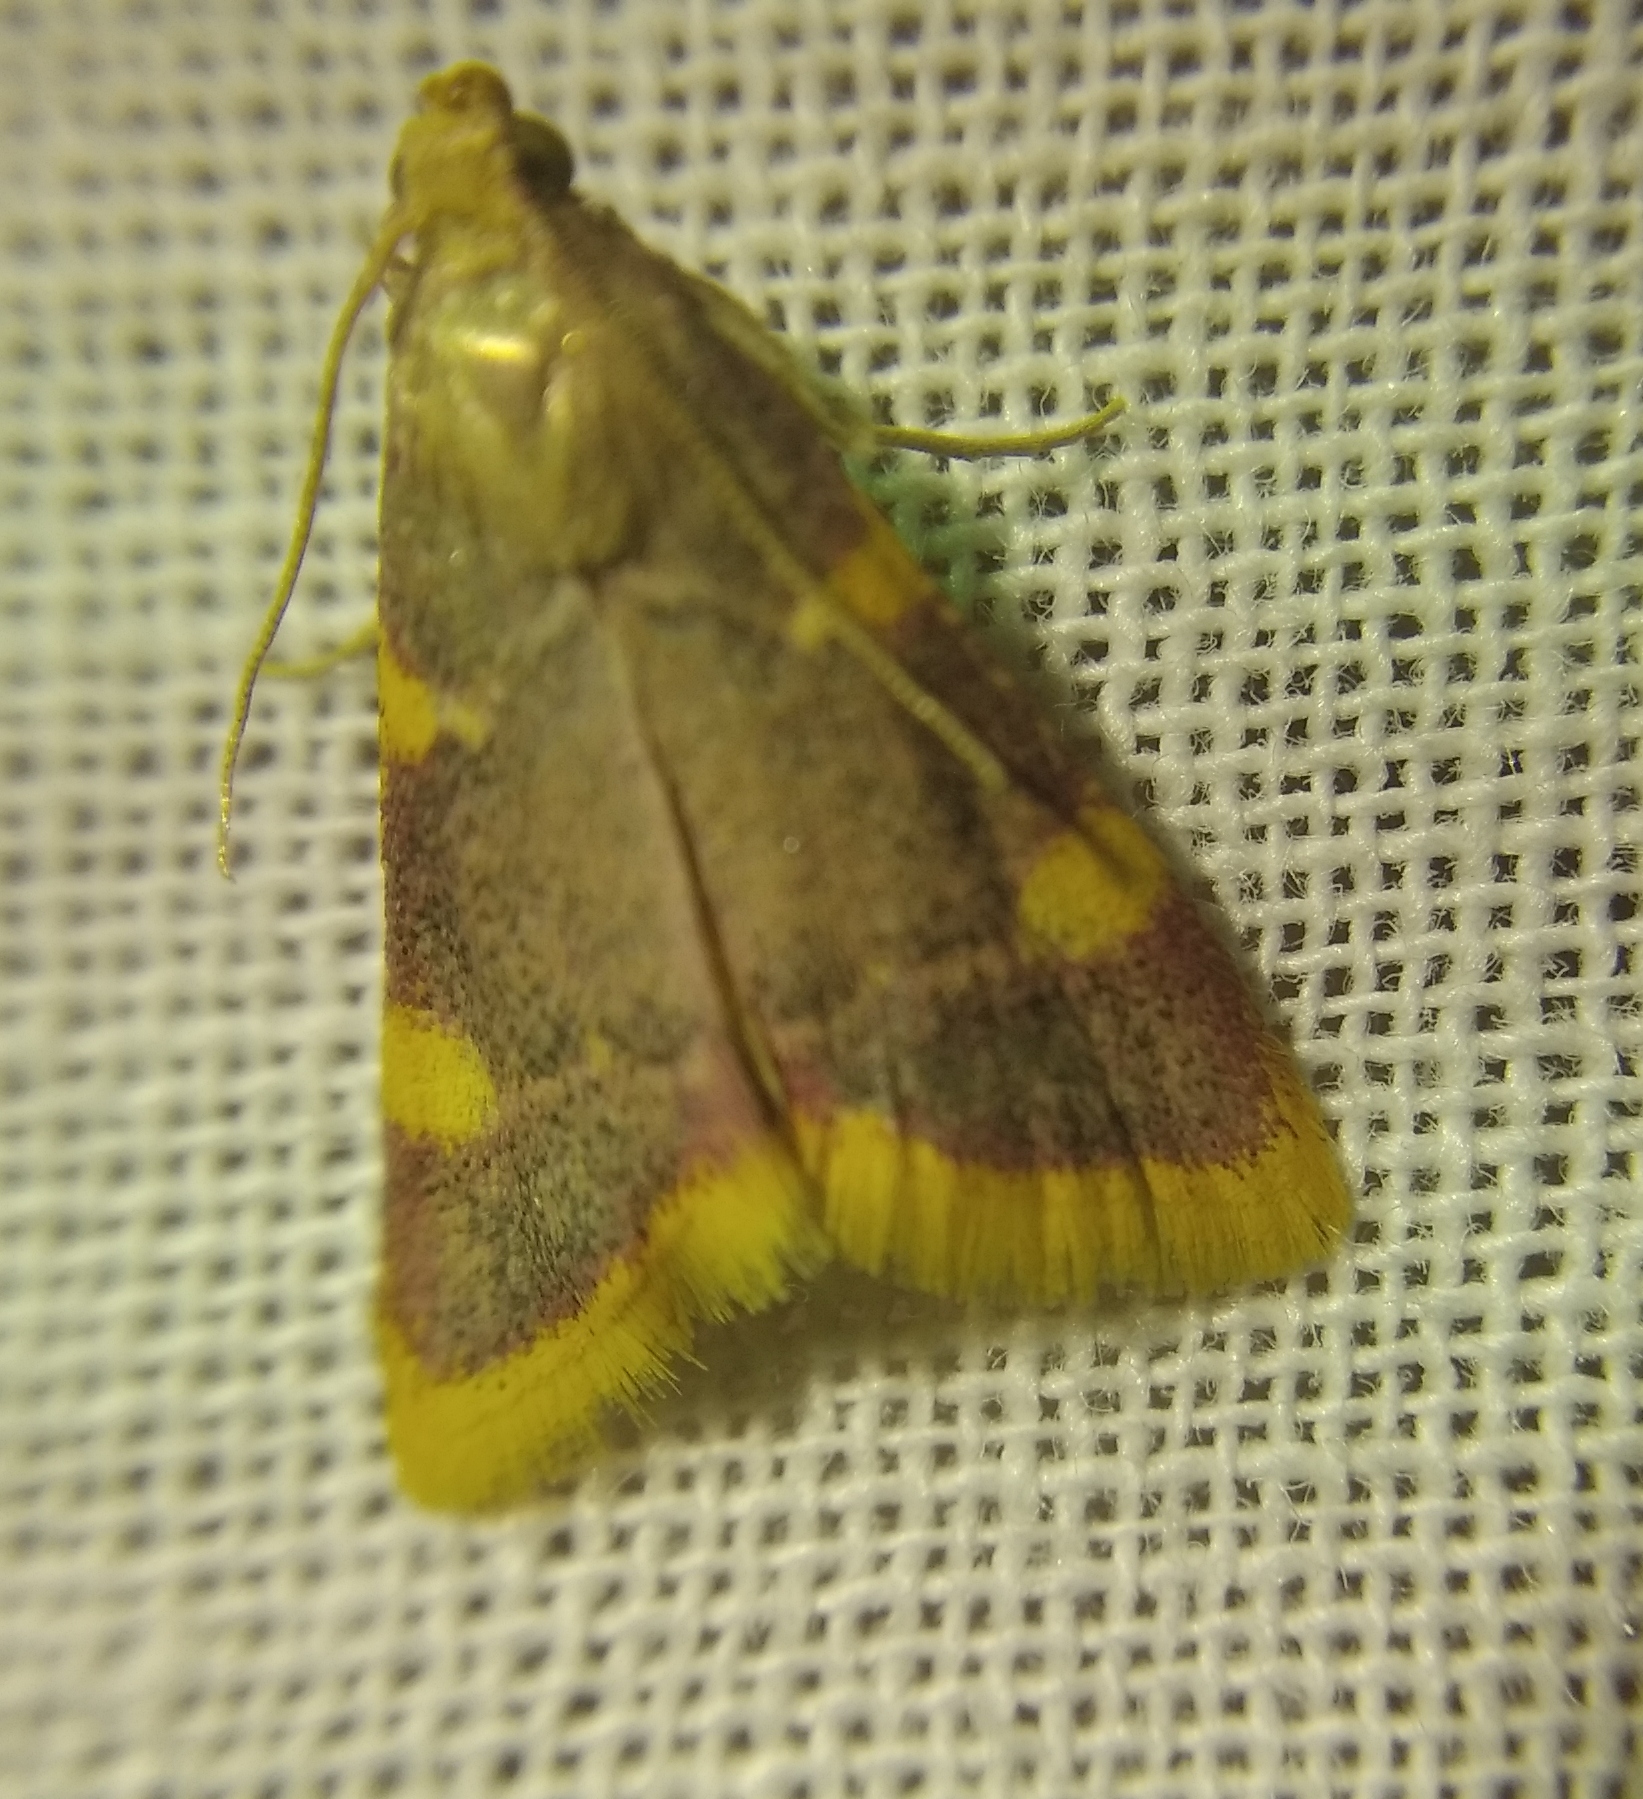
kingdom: Animalia
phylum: Arthropoda
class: Insecta
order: Lepidoptera
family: Pyralidae
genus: Hypsopygia
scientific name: Hypsopygia costalis
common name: Gold triangle
